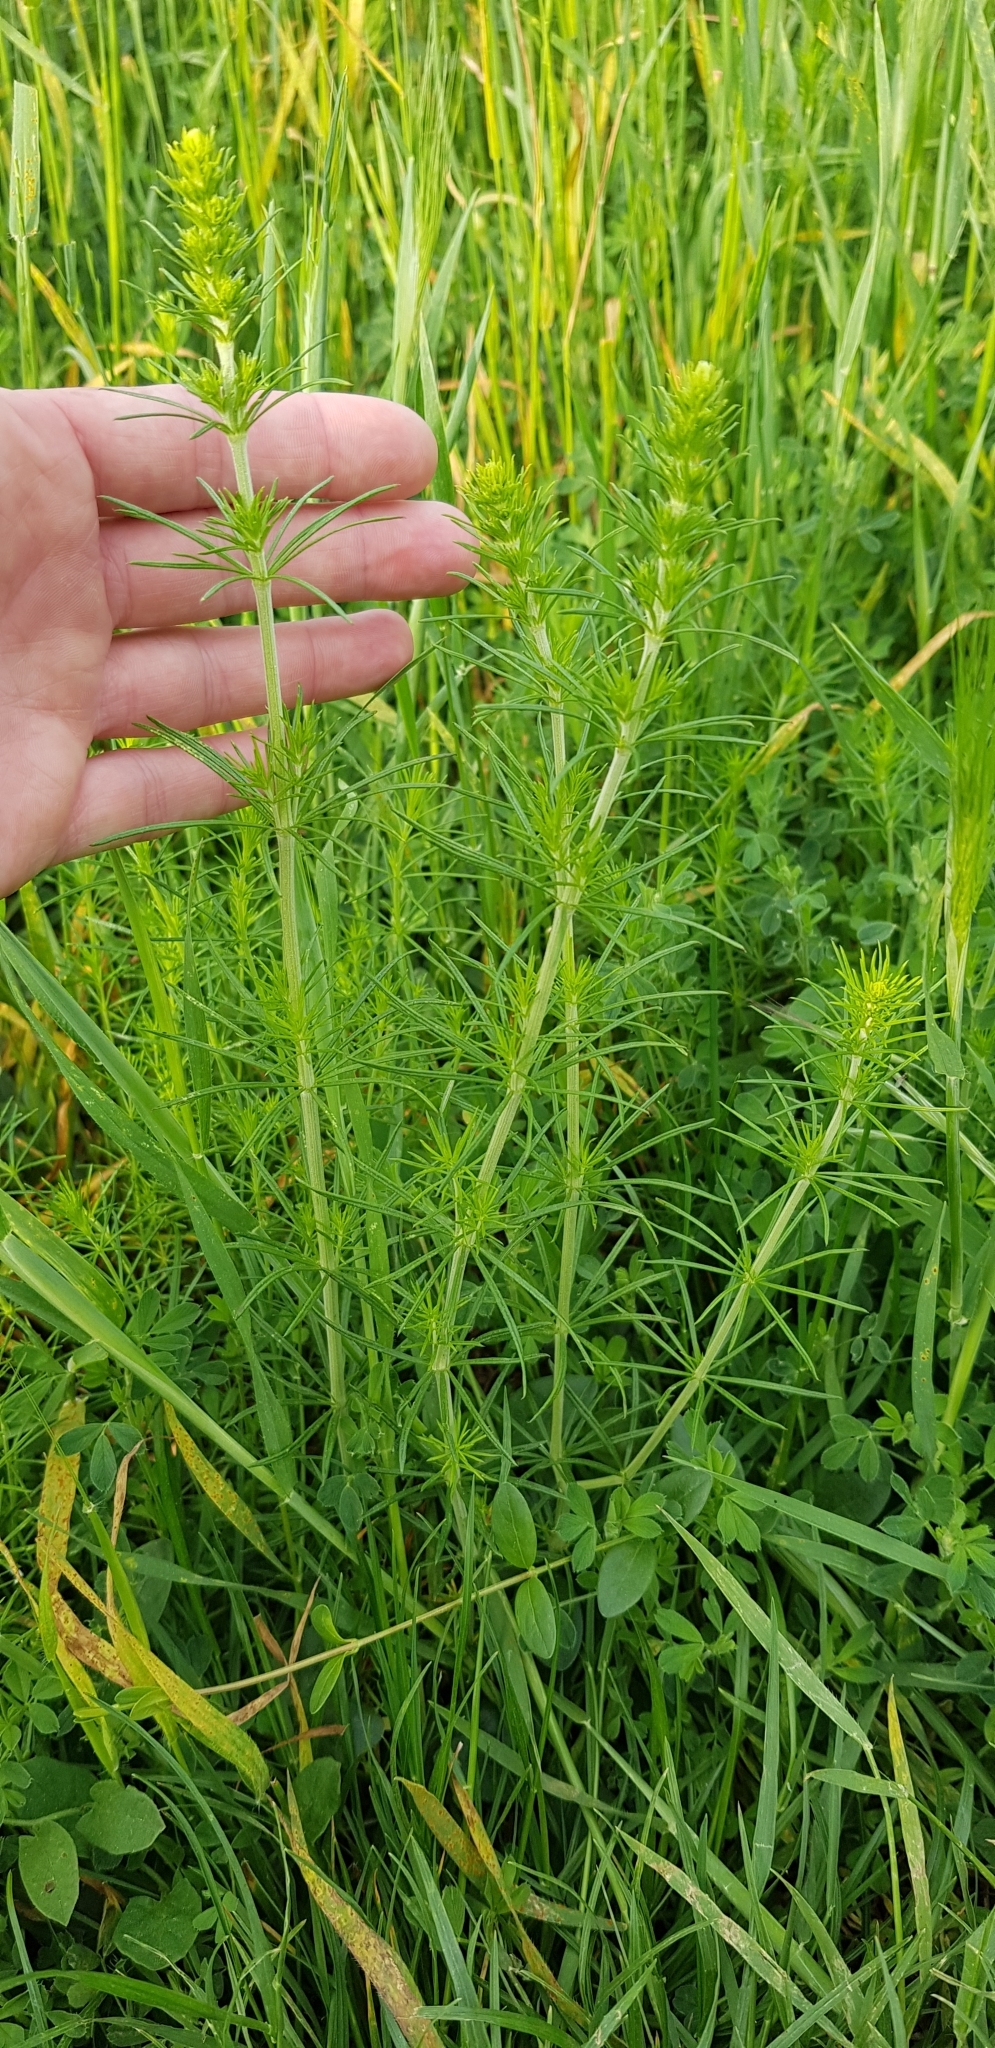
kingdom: Plantae
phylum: Tracheophyta
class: Magnoliopsida
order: Gentianales
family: Rubiaceae
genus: Galium
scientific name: Galium verum
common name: Lady's bedstraw
